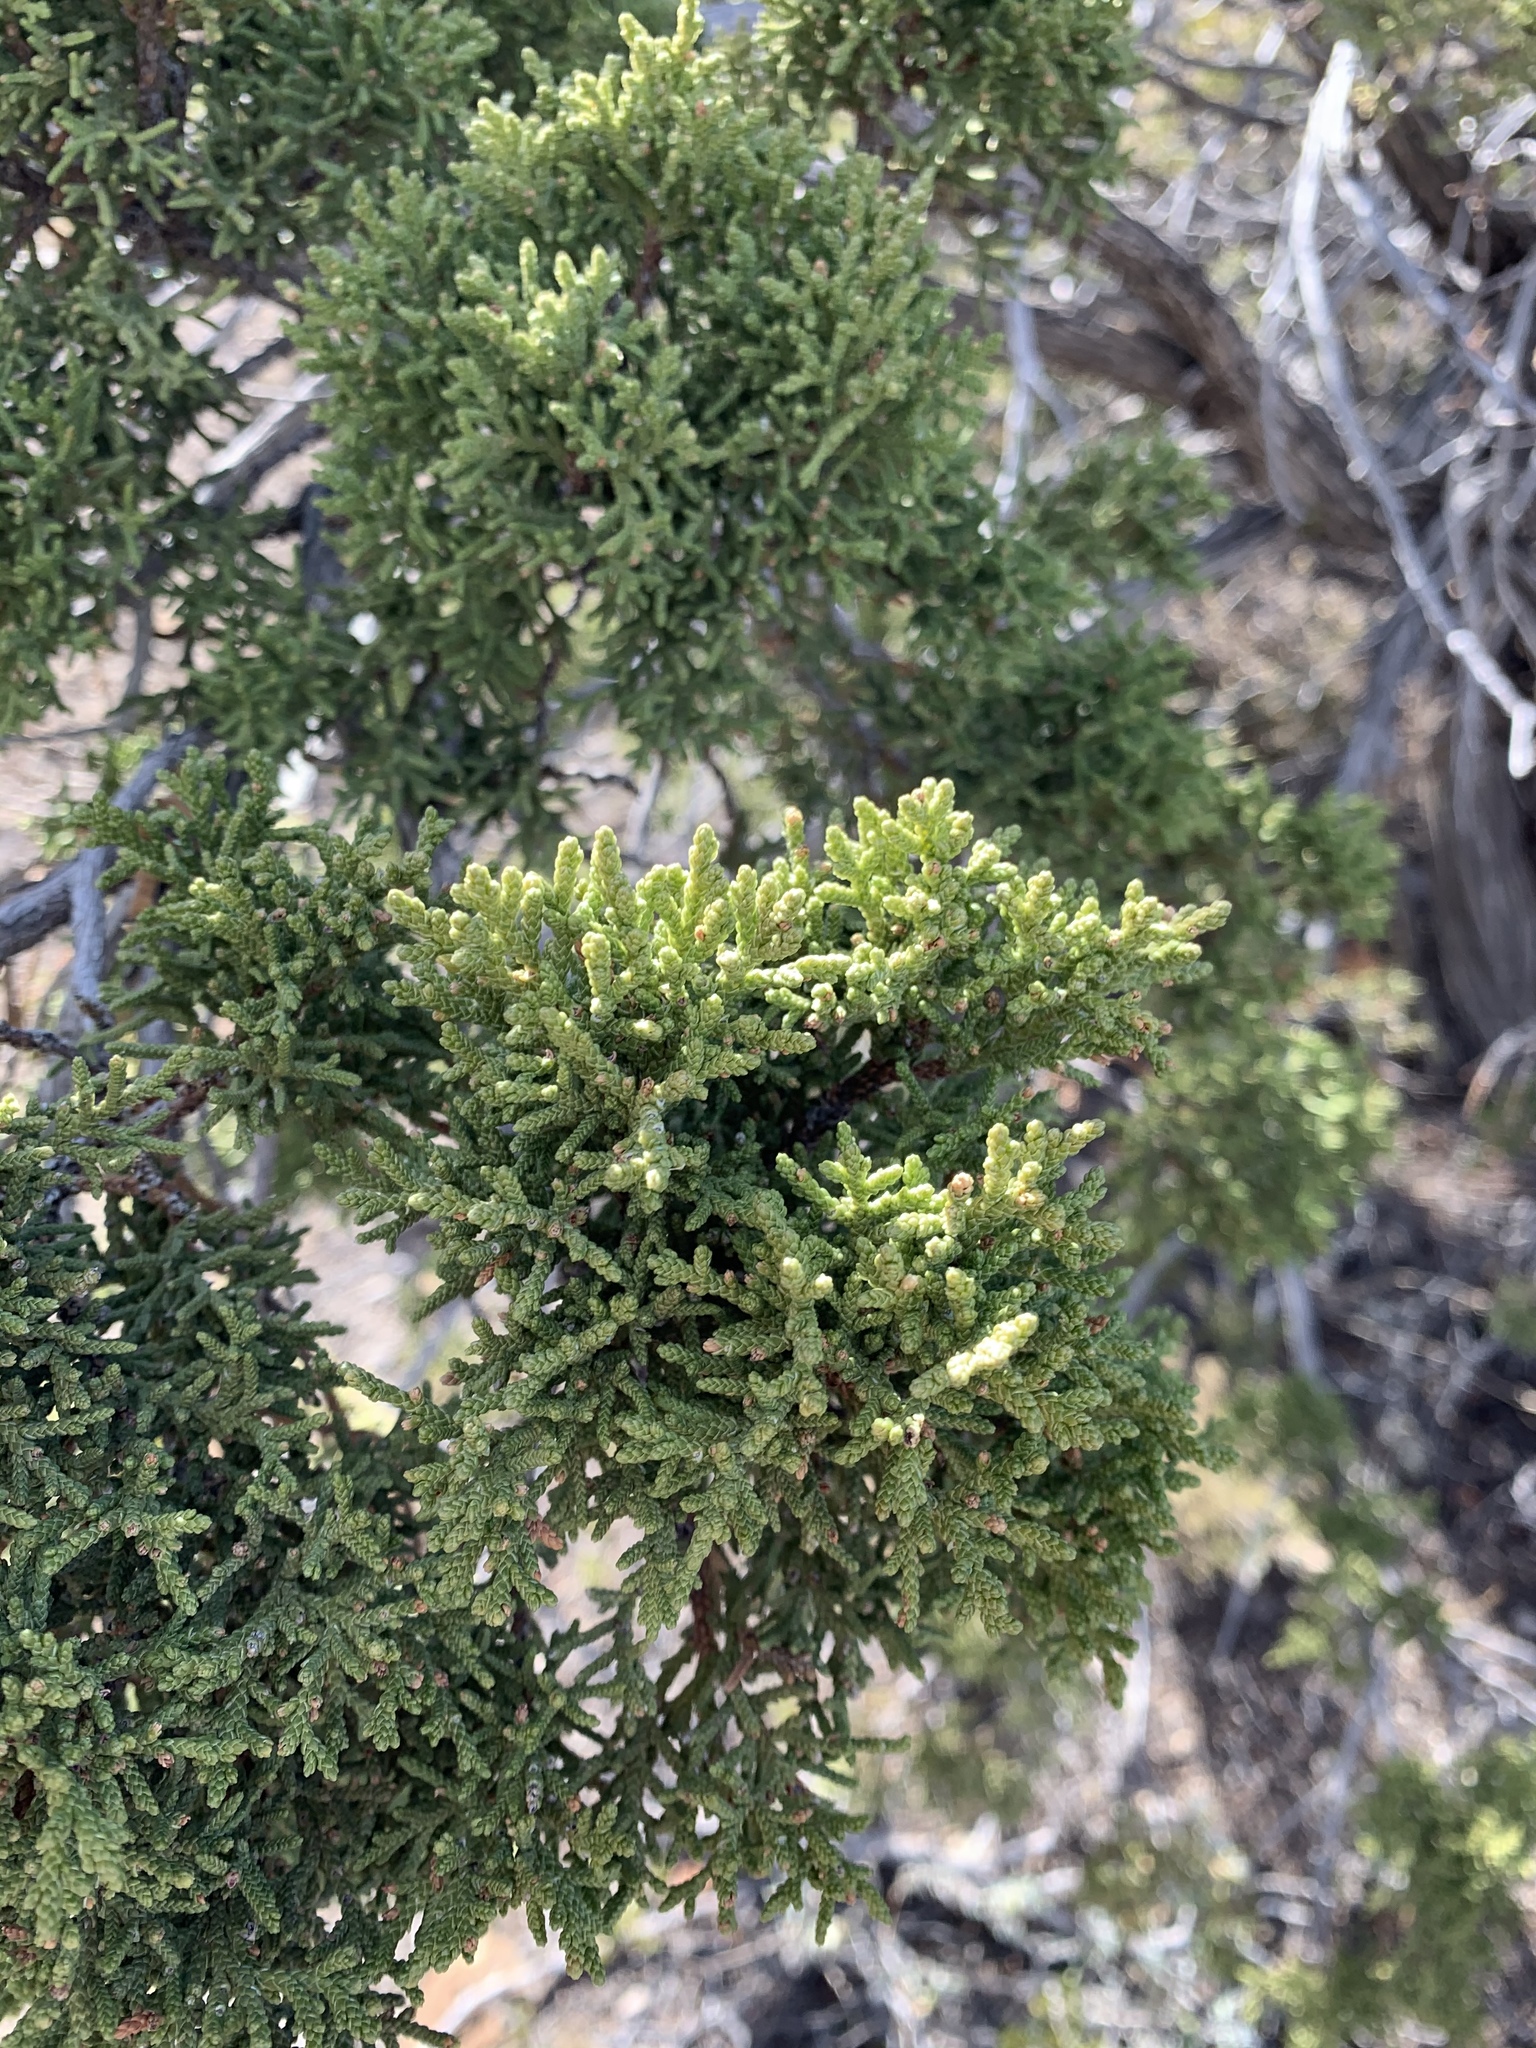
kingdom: Plantae
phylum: Tracheophyta
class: Pinopsida
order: Pinales
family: Cupressaceae
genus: Juniperus
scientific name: Juniperus monosperma
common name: One-seed juniper
